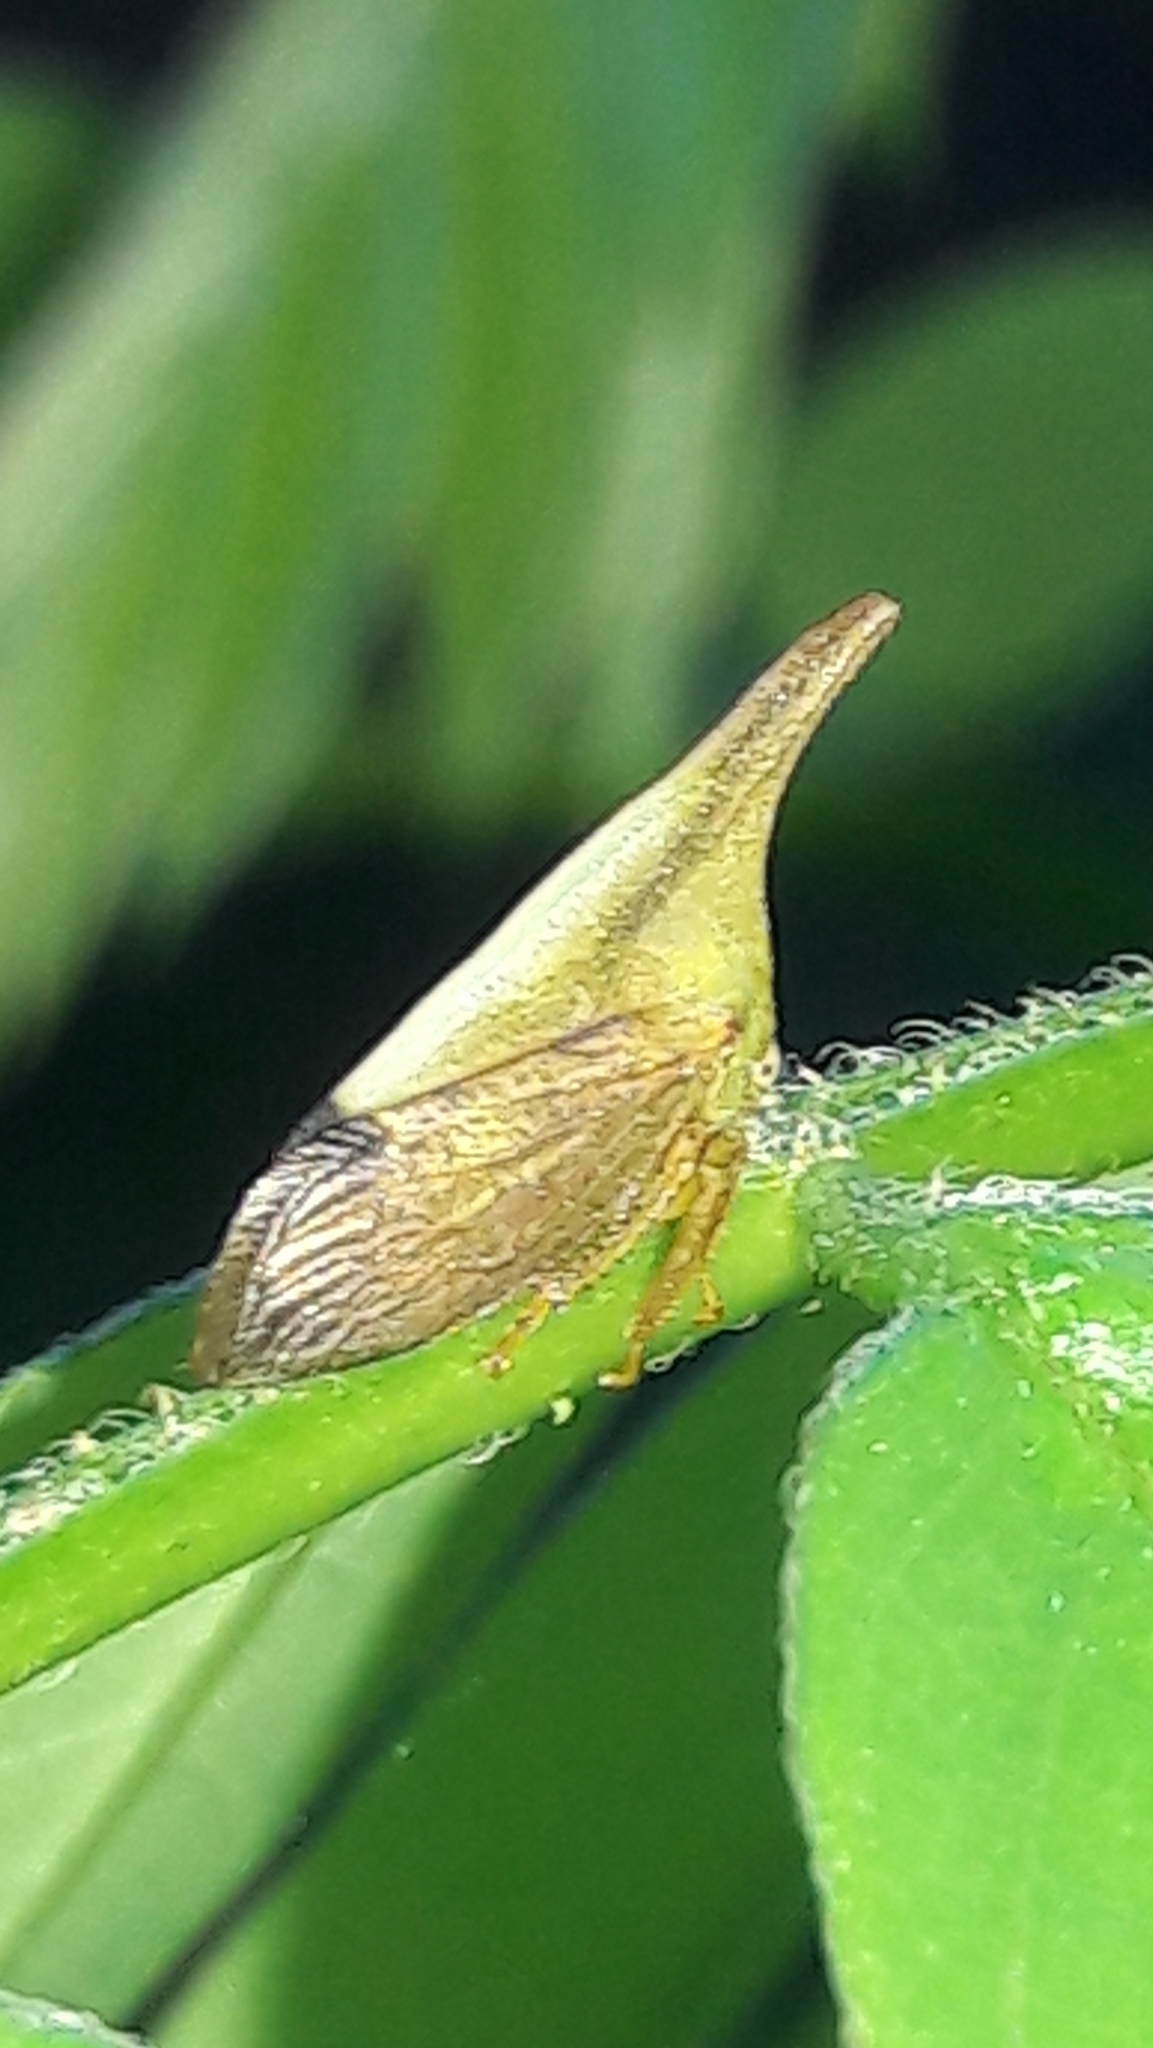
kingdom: Animalia
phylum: Arthropoda
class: Insecta
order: Hemiptera
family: Membracidae
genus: Enchenopa
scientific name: Enchenopa concolor
